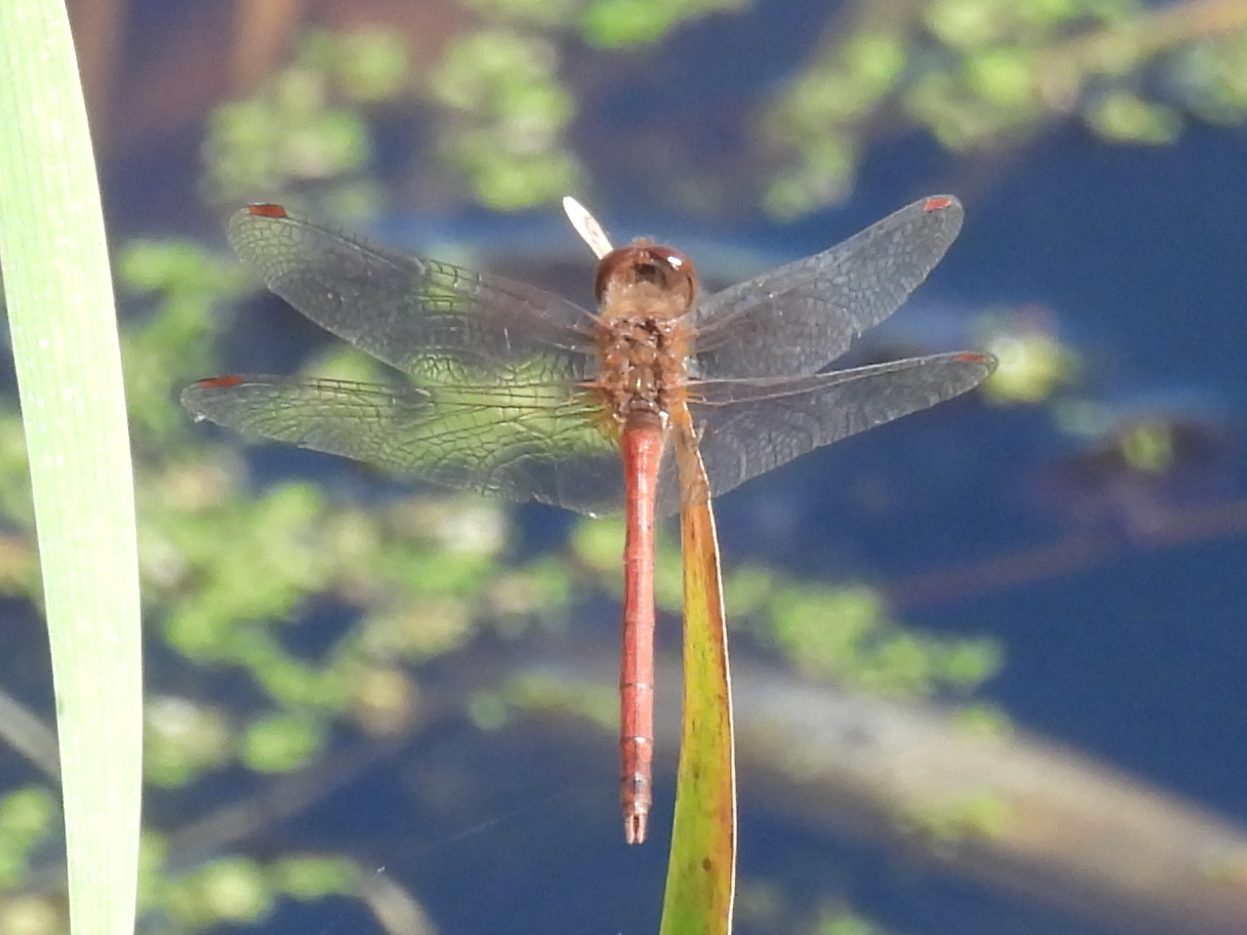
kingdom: Animalia
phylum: Arthropoda
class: Insecta
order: Odonata
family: Libellulidae
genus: Sympetrum
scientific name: Sympetrum vicinum
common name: Autumn meadowhawk
